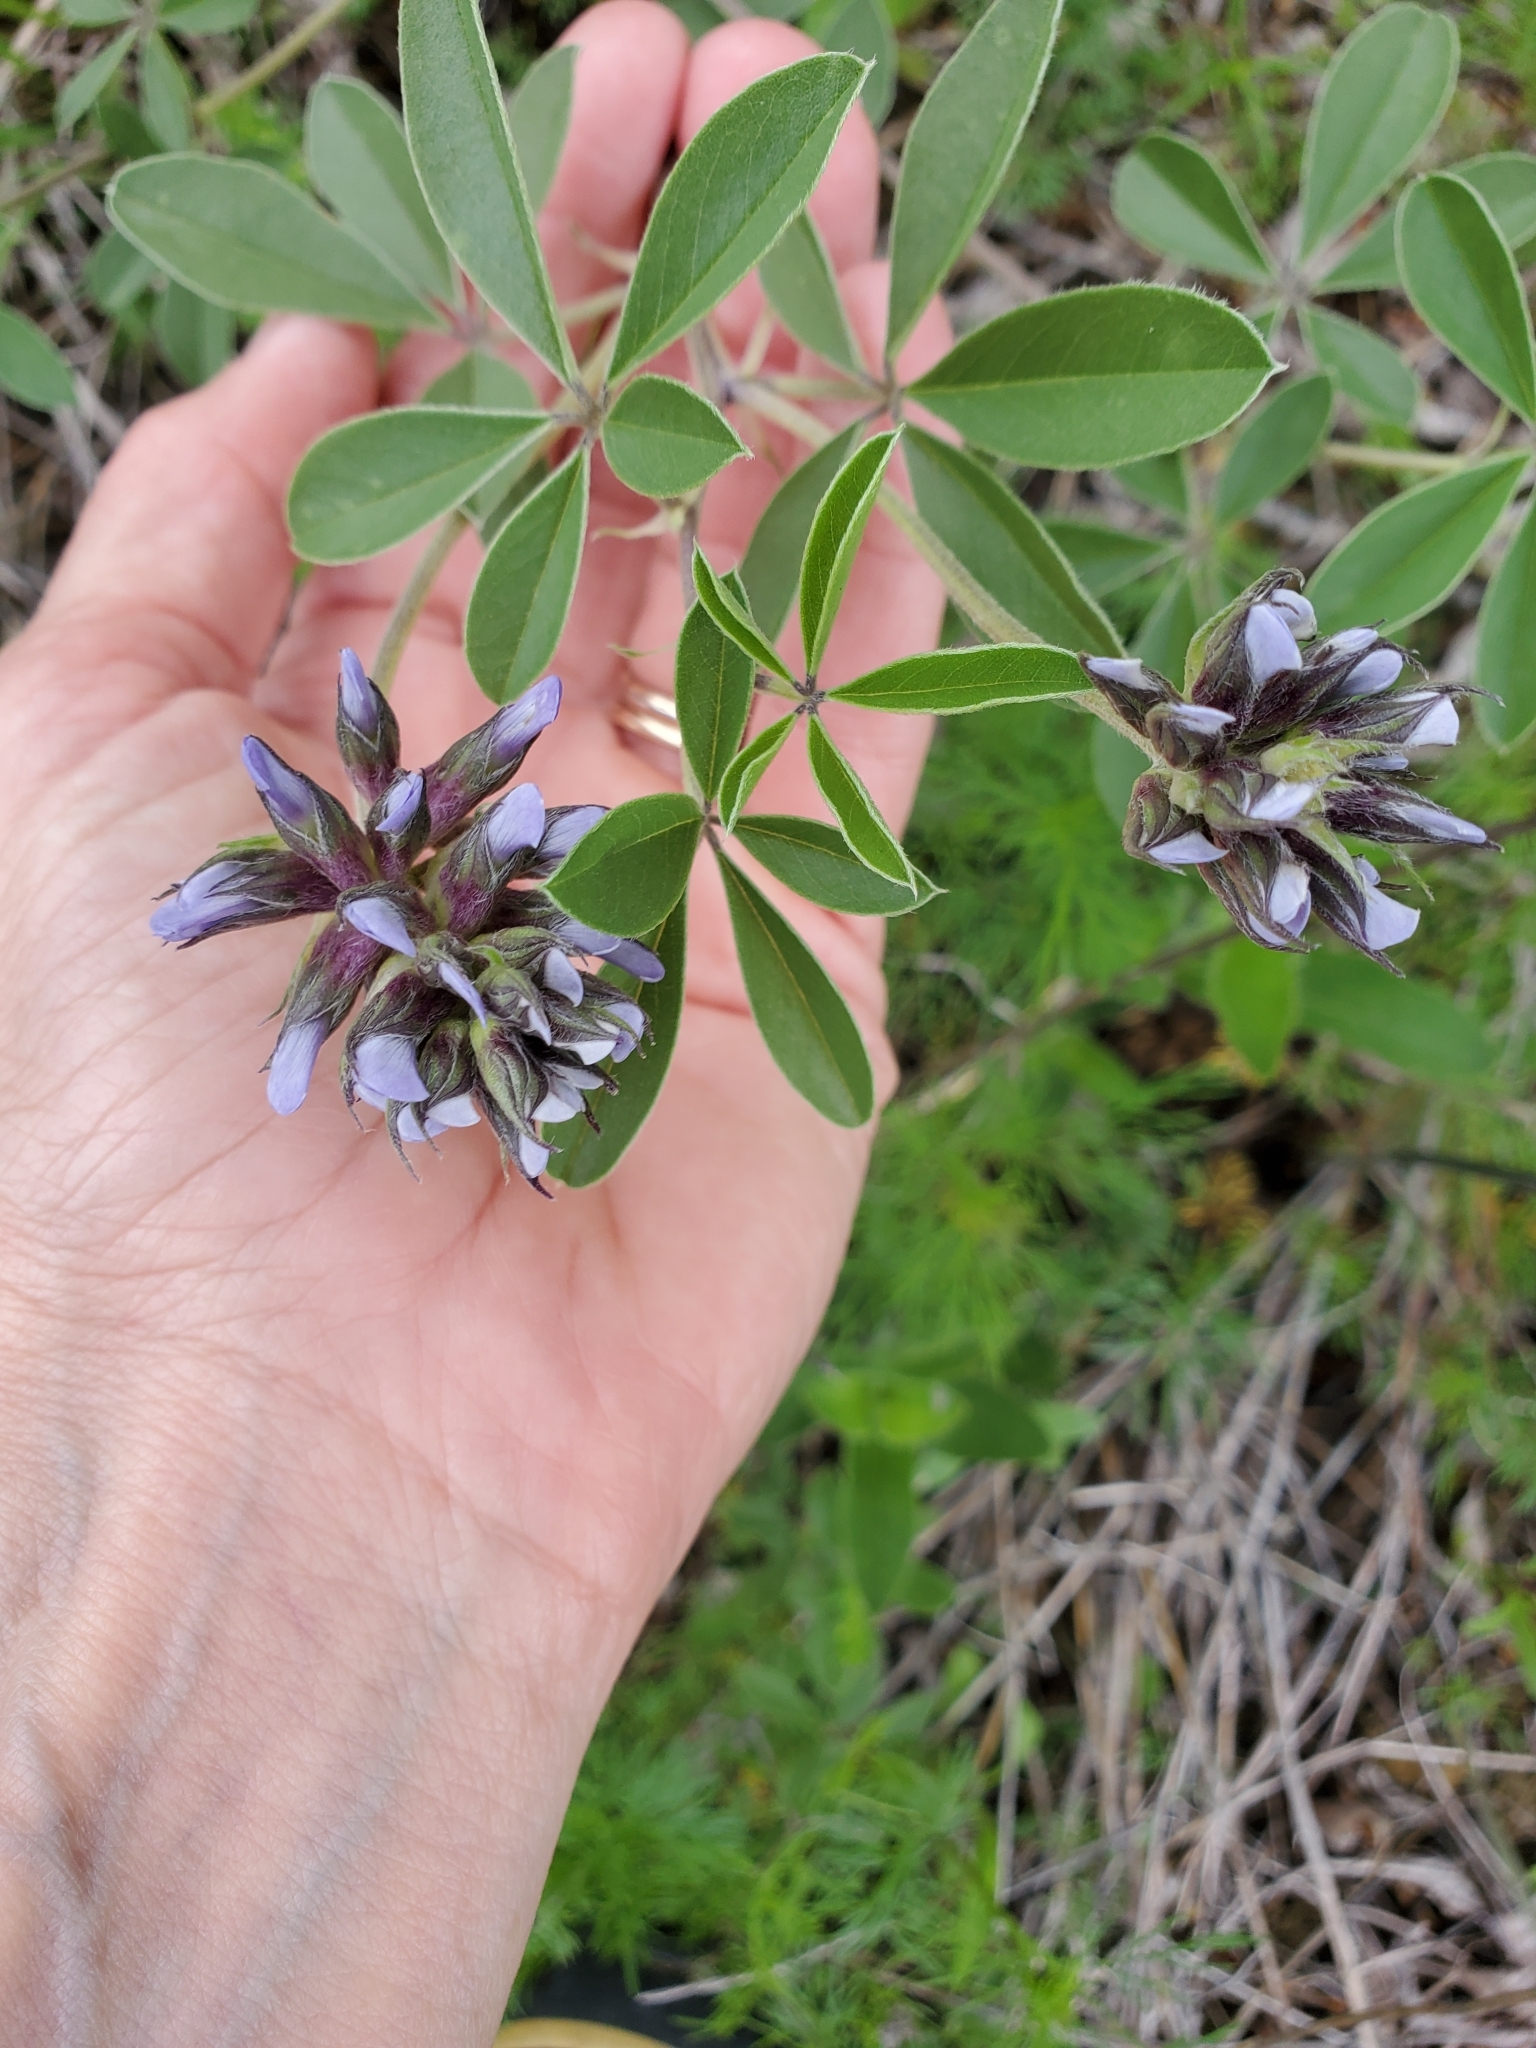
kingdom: Plantae
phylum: Tracheophyta
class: Magnoliopsida
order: Fabales
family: Fabaceae
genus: Pediomelum
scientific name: Pediomelum cuspidatum
